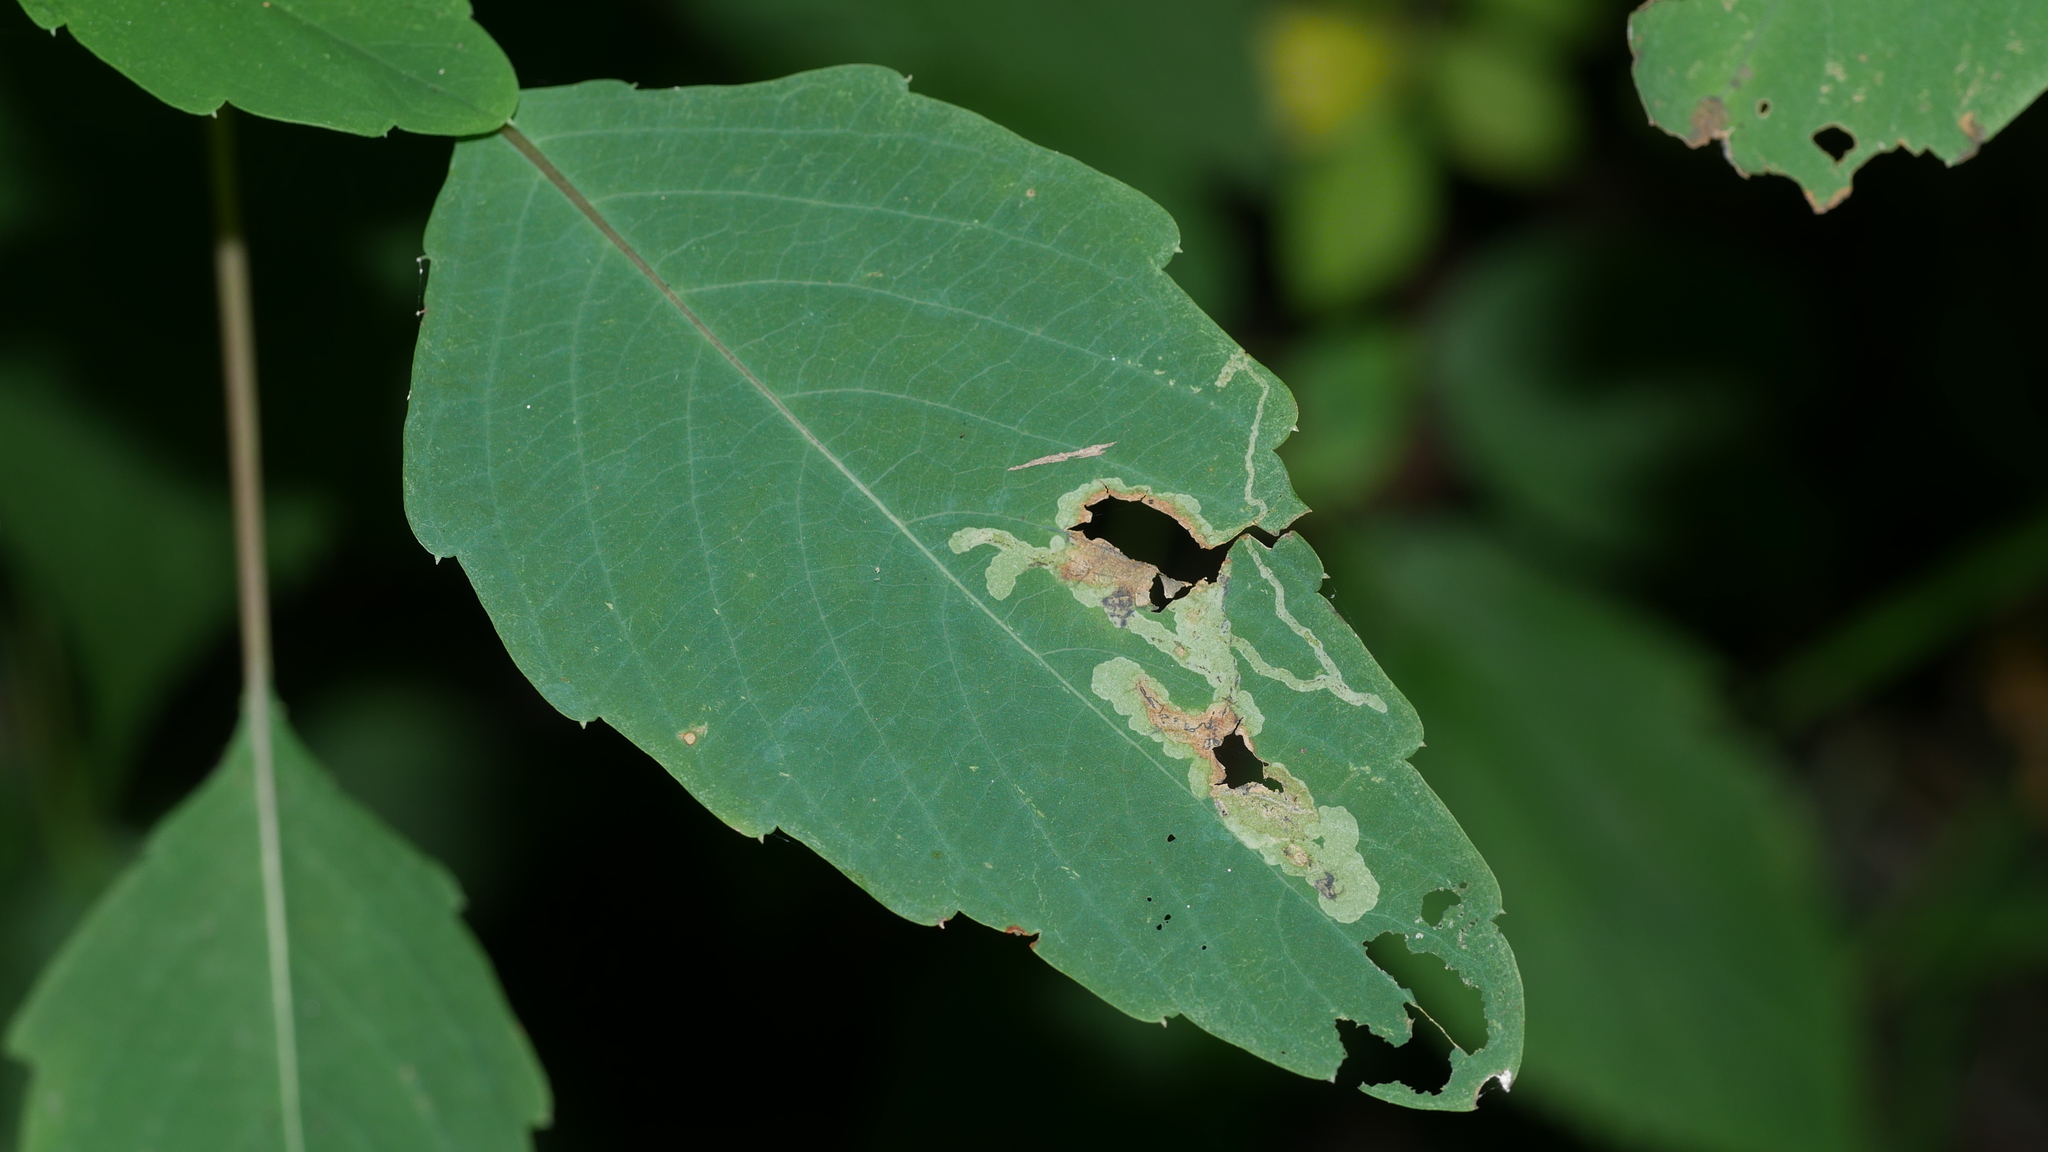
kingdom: Animalia
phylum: Arthropoda
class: Insecta
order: Diptera
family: Agromyzidae
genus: Phytoliriomyza
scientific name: Phytoliriomyza melampyga
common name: Jewelweed leaf-miner fly
